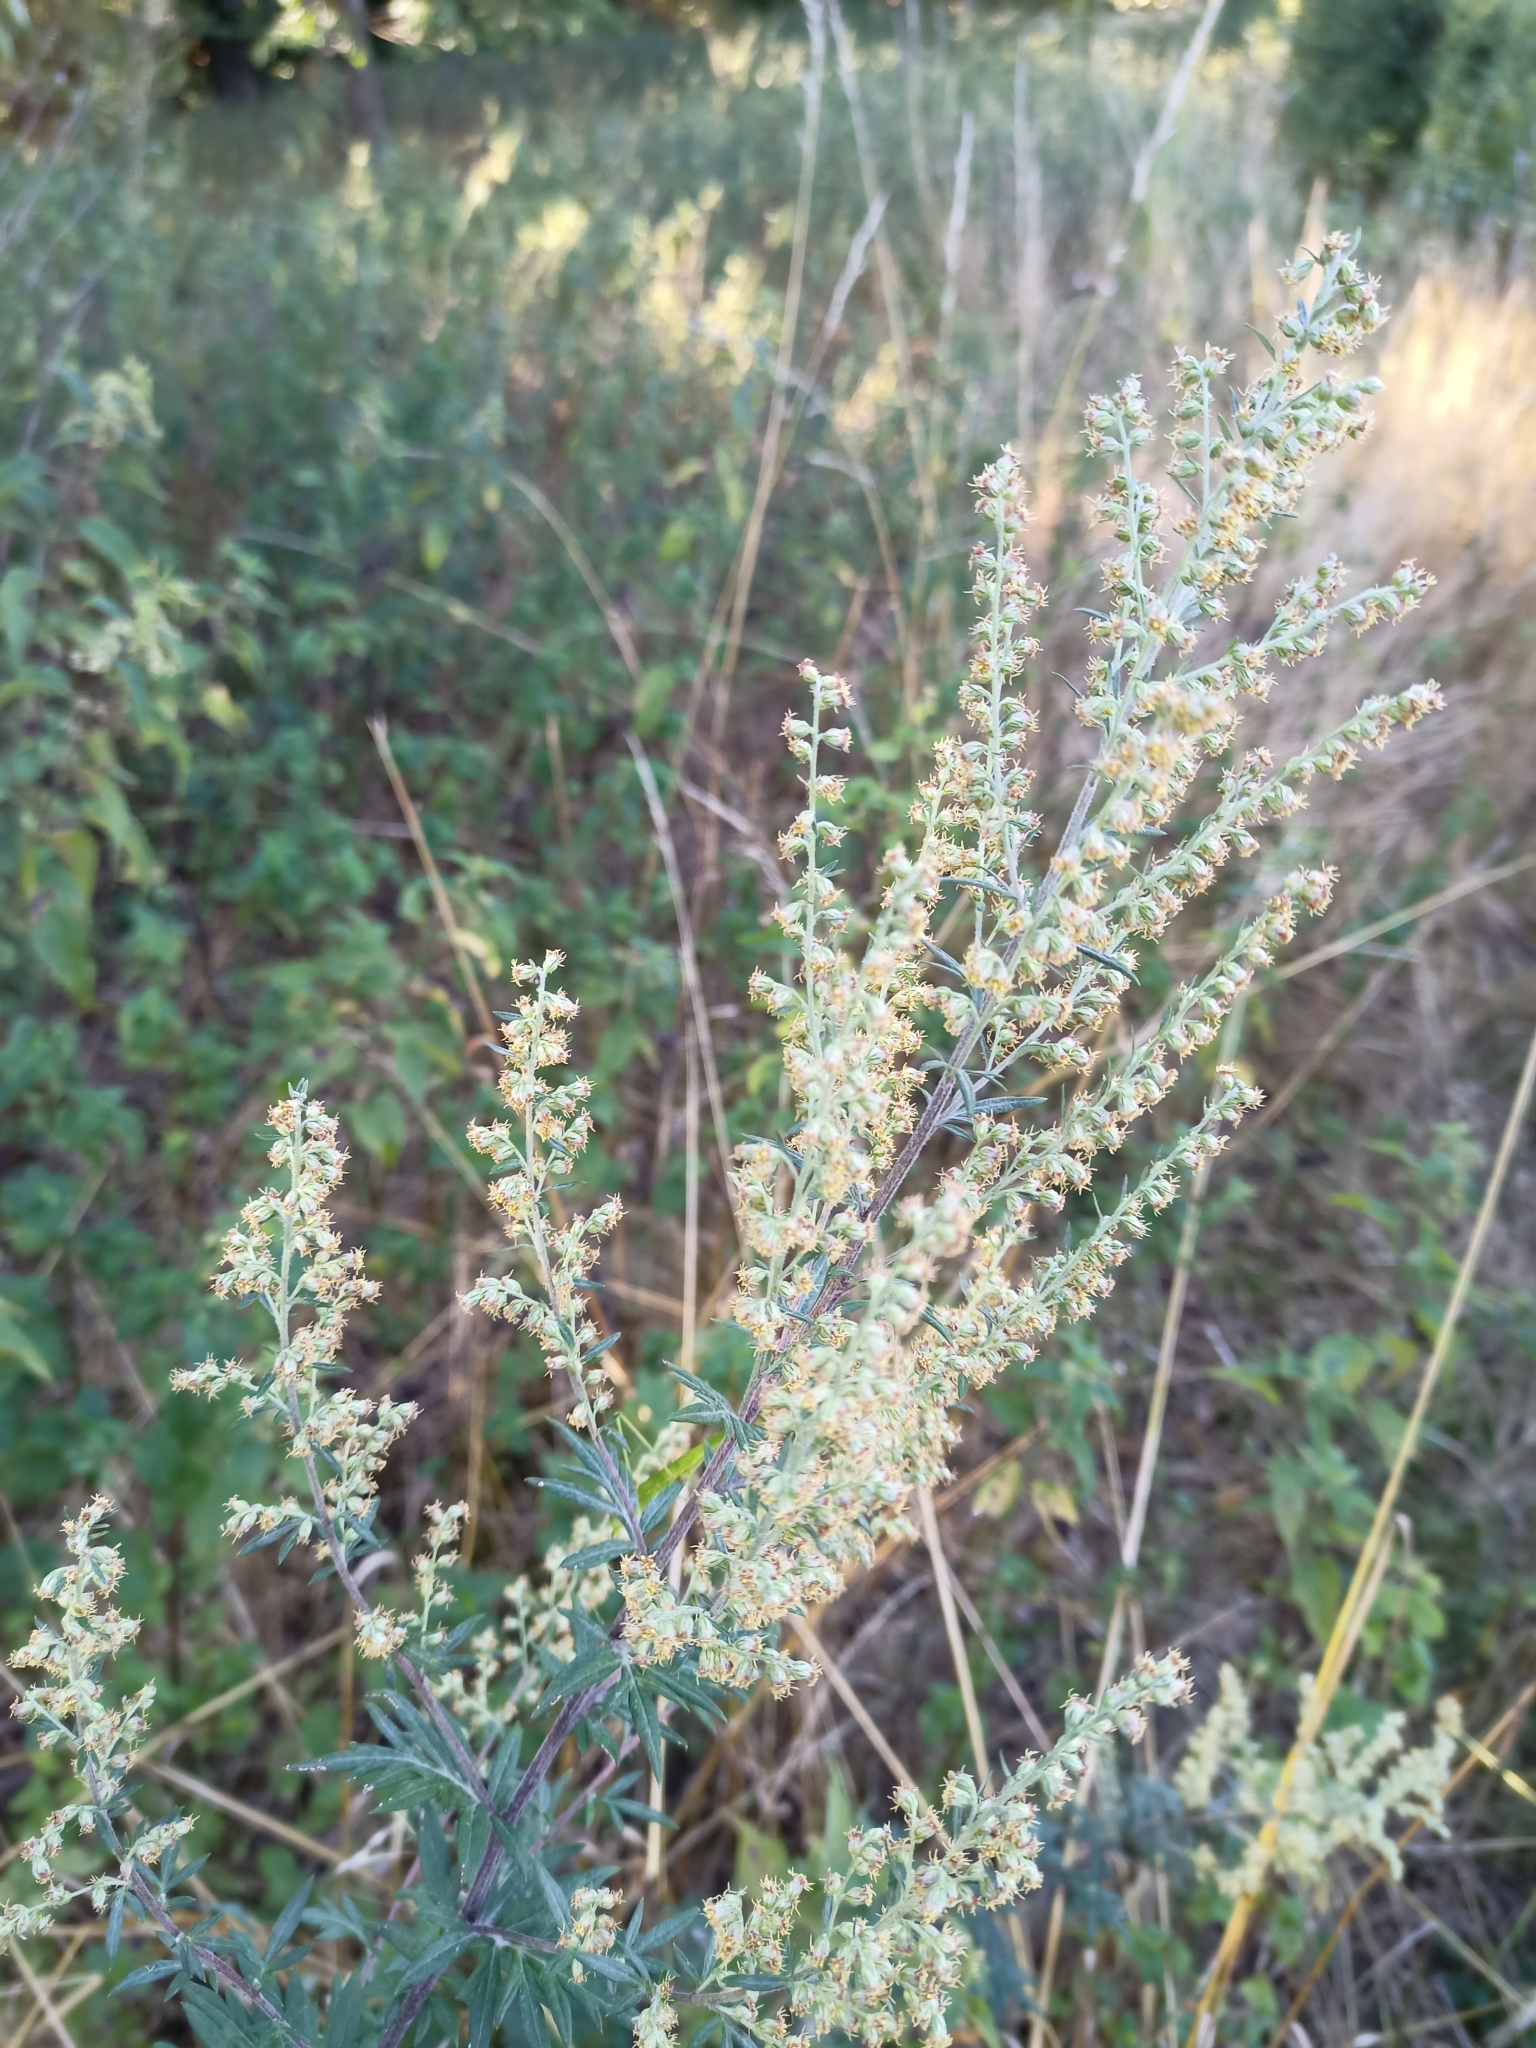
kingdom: Plantae
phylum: Tracheophyta
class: Magnoliopsida
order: Asterales
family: Asteraceae
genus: Artemisia
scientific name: Artemisia vulgaris
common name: Mugwort
